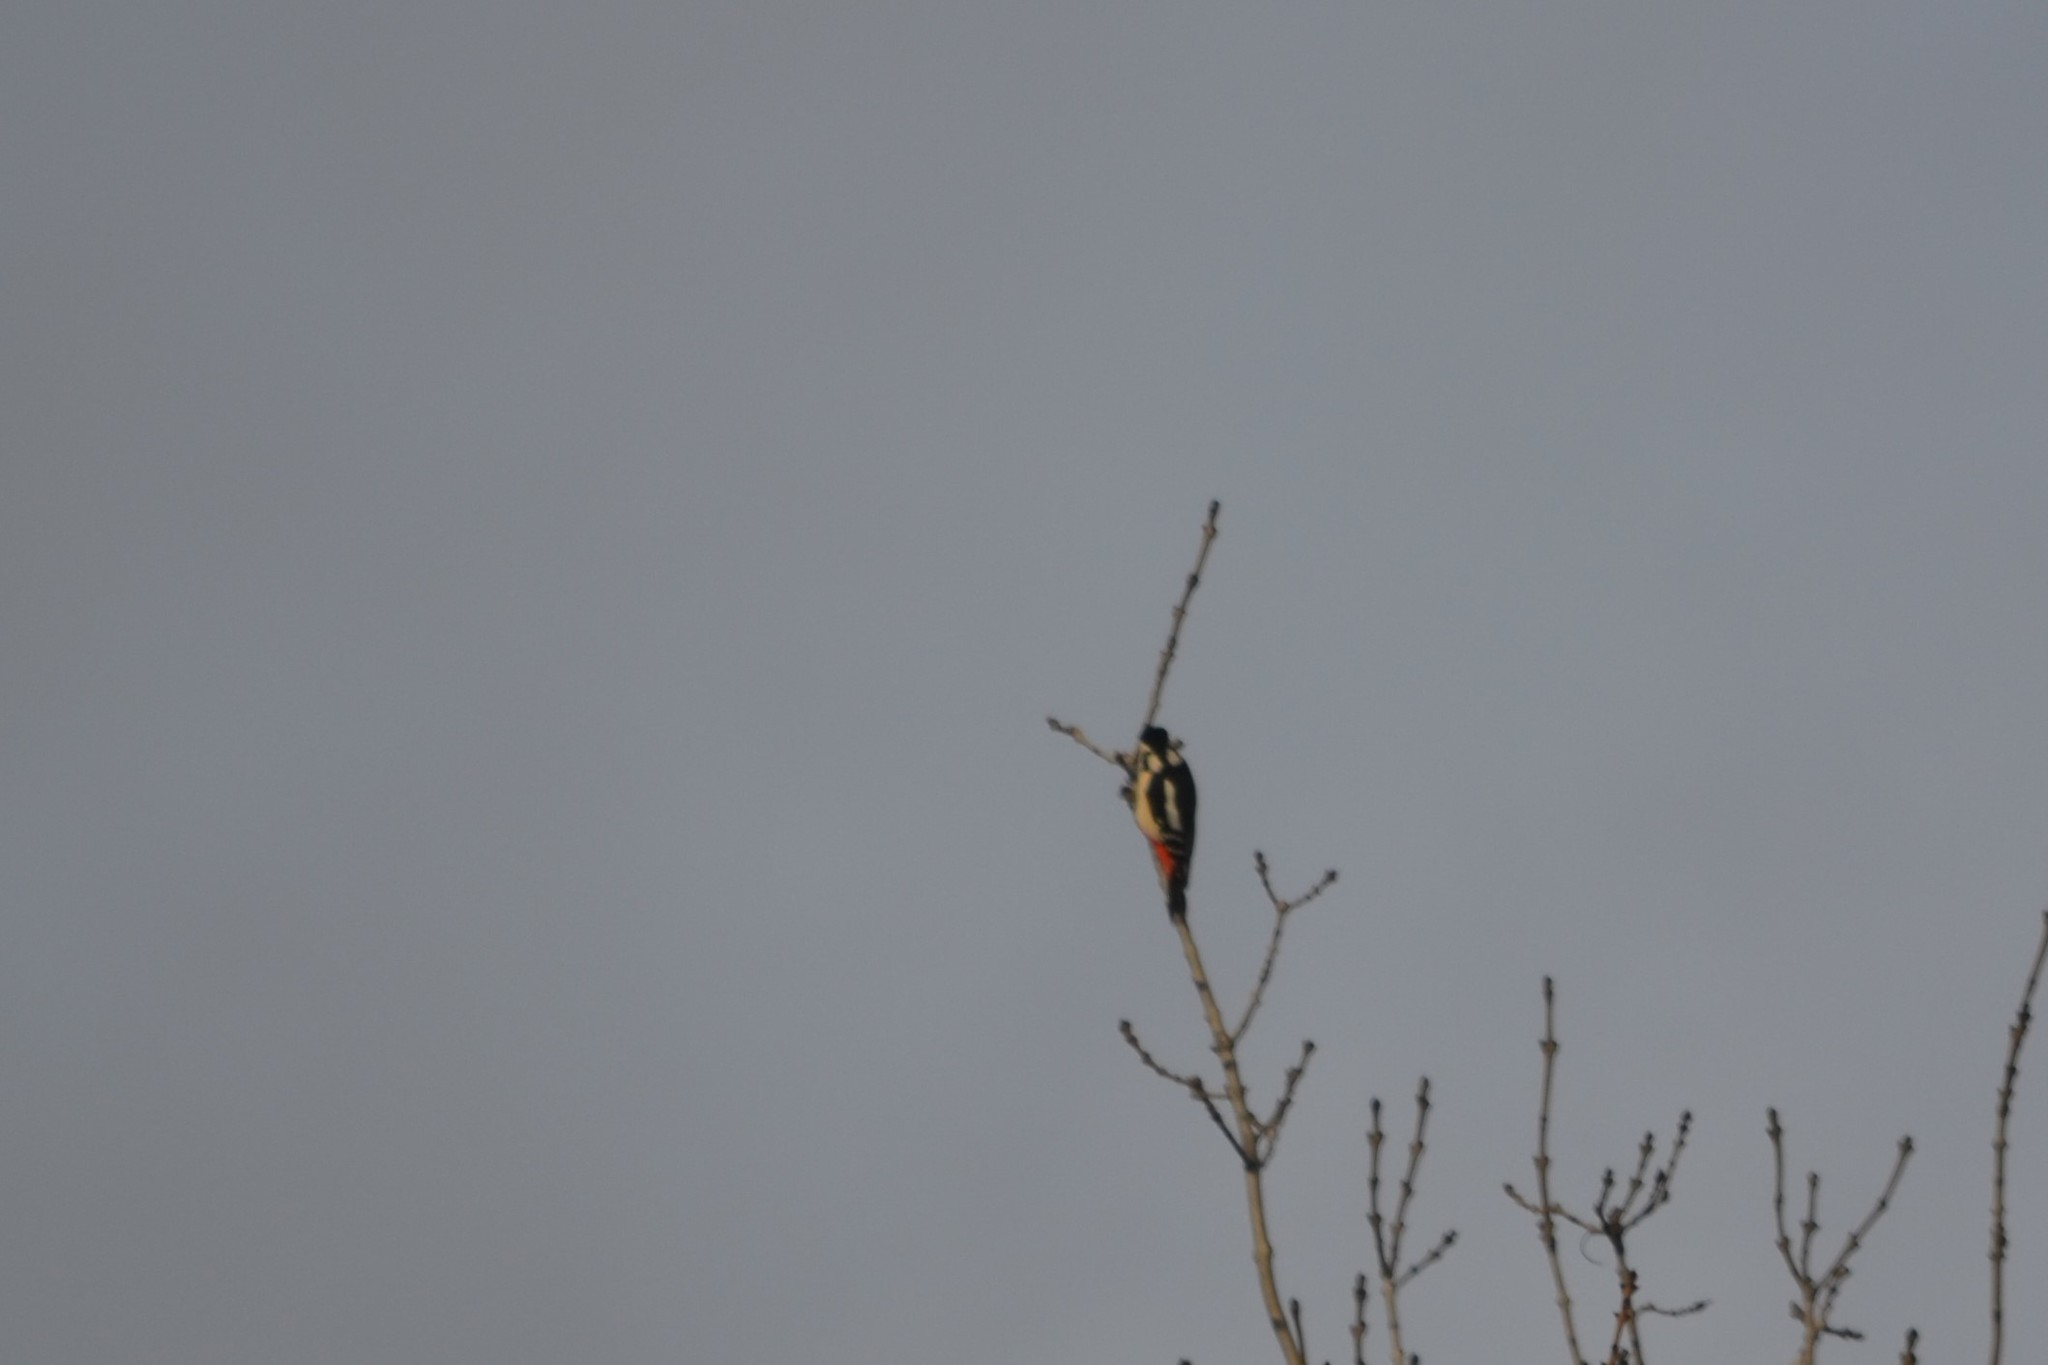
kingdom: Animalia
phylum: Chordata
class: Aves
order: Piciformes
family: Picidae
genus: Dendrocopos
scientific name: Dendrocopos major
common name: Great spotted woodpecker
